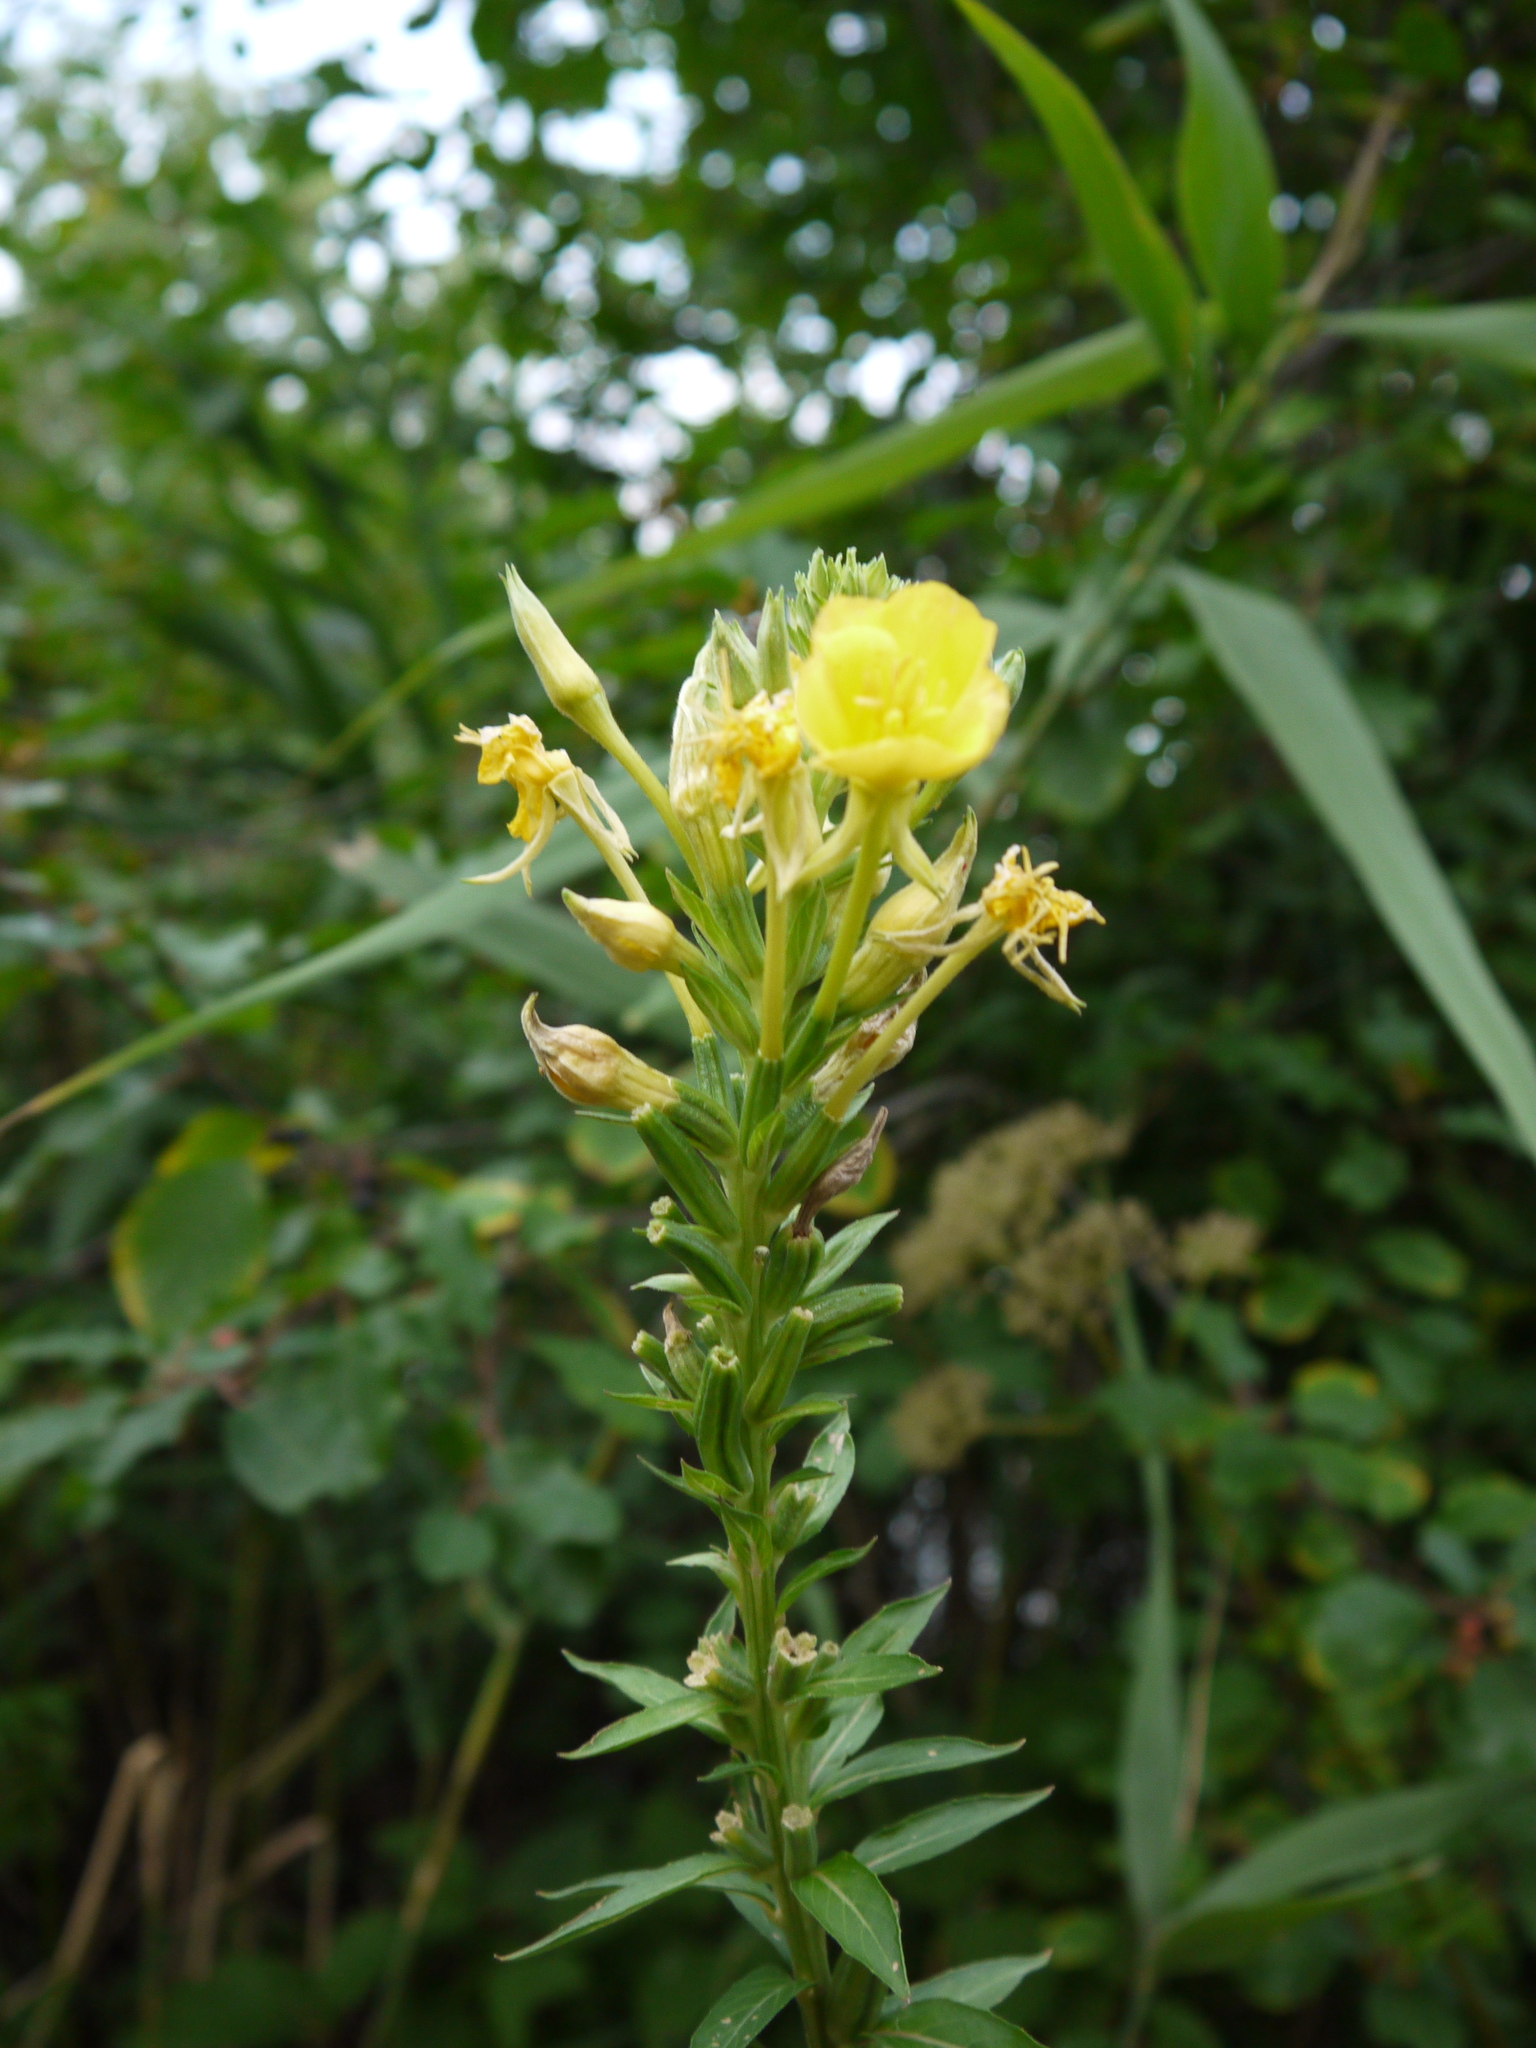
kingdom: Plantae
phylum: Tracheophyta
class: Magnoliopsida
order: Myrtales
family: Onagraceae
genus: Oenothera
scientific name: Oenothera biennis
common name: Common evening-primrose
